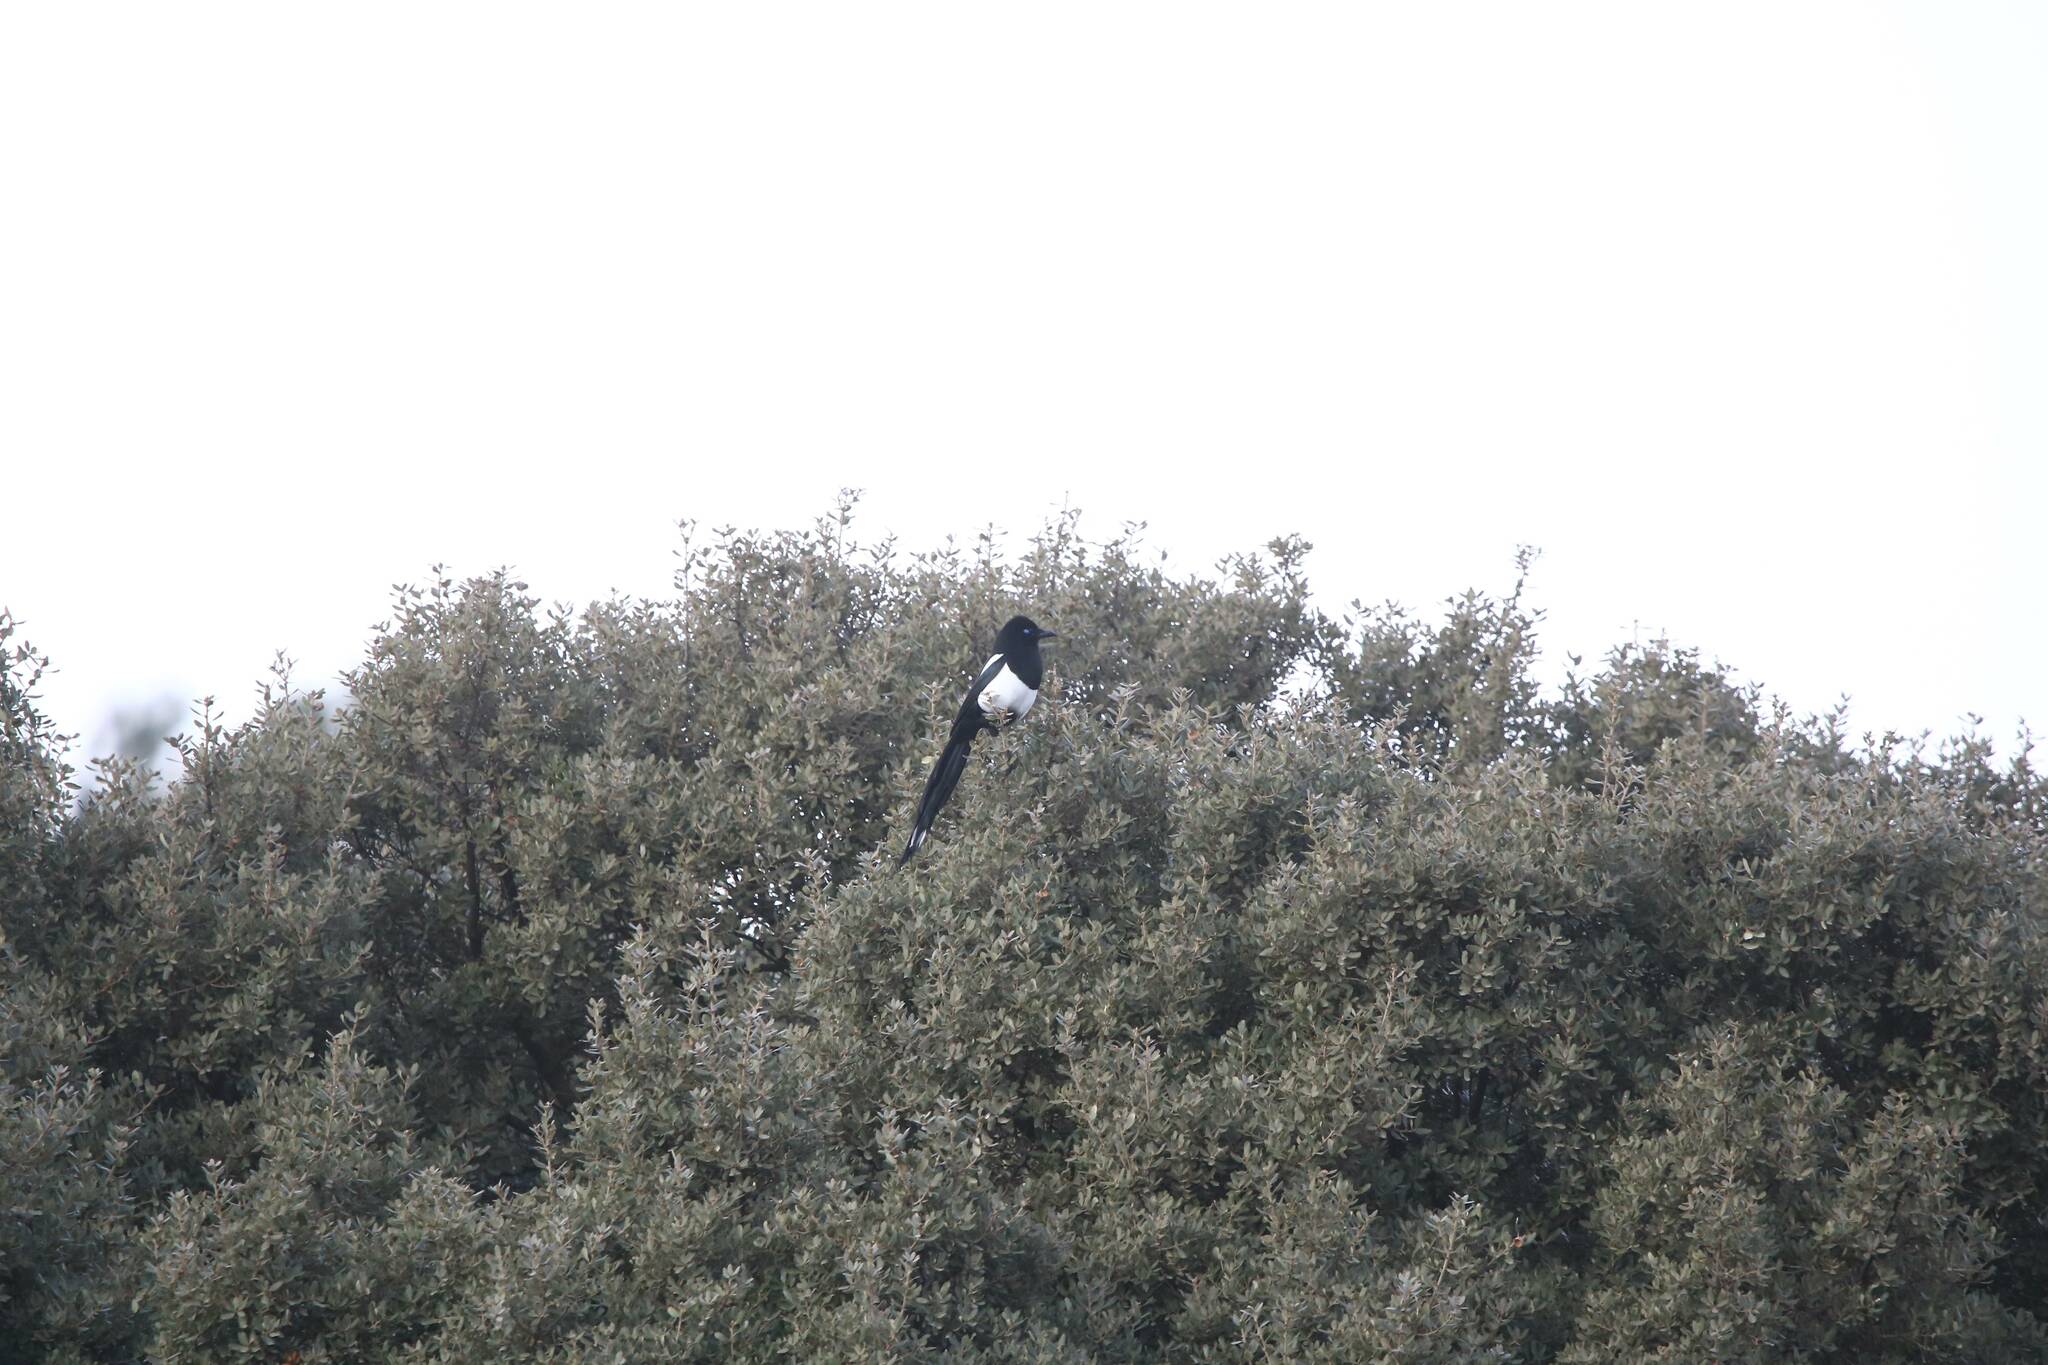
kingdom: Animalia
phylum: Chordata
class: Aves
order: Passeriformes
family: Corvidae
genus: Pica
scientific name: Pica mauritanica
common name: Maghreb magpie
